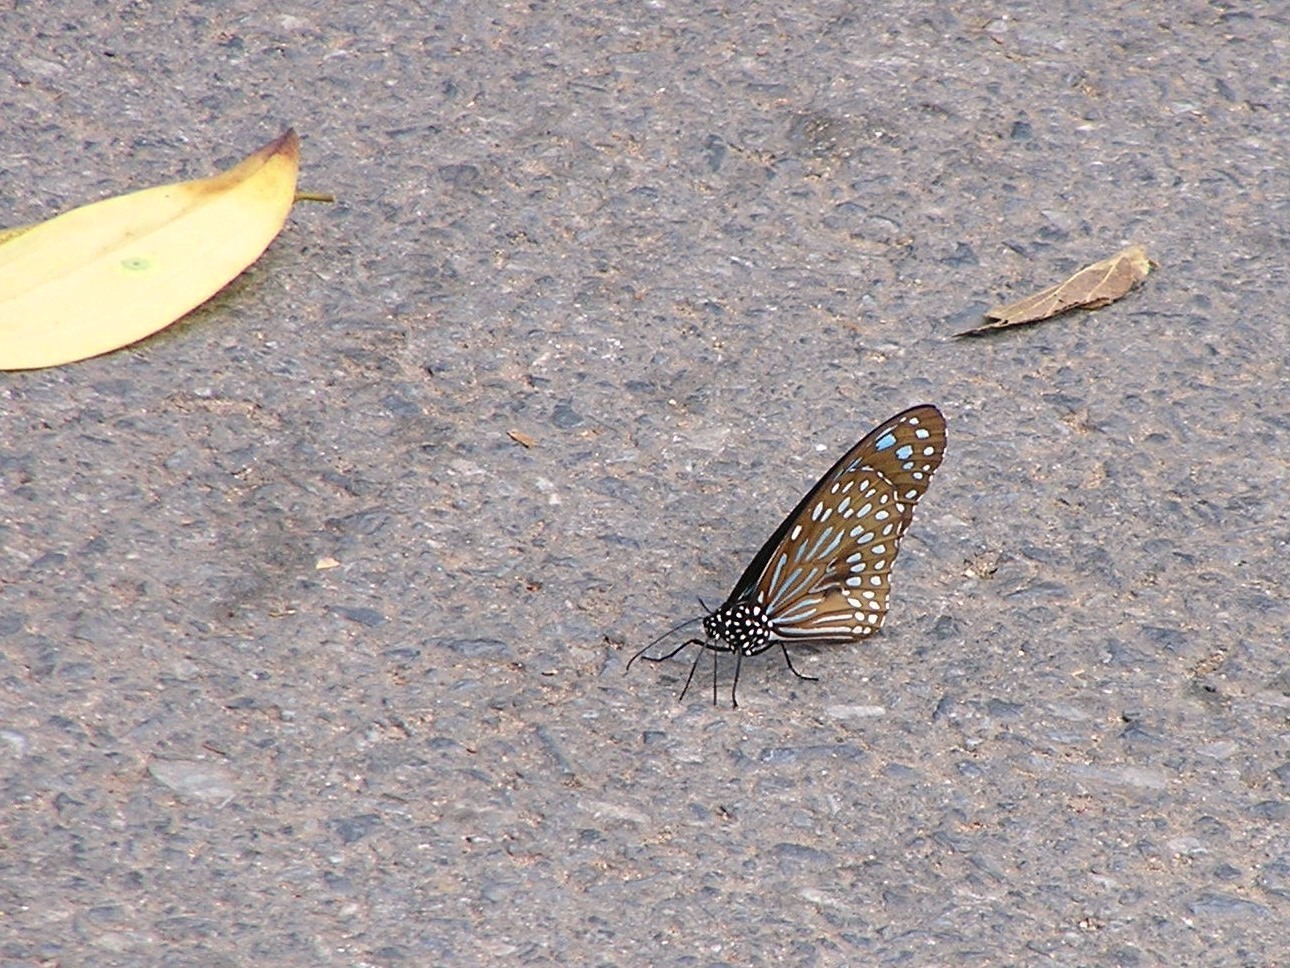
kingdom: Animalia
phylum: Arthropoda
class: Insecta
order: Lepidoptera
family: Nymphalidae
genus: Tirumala
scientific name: Tirumala septentrionis
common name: Dark blue tiger butterfly
